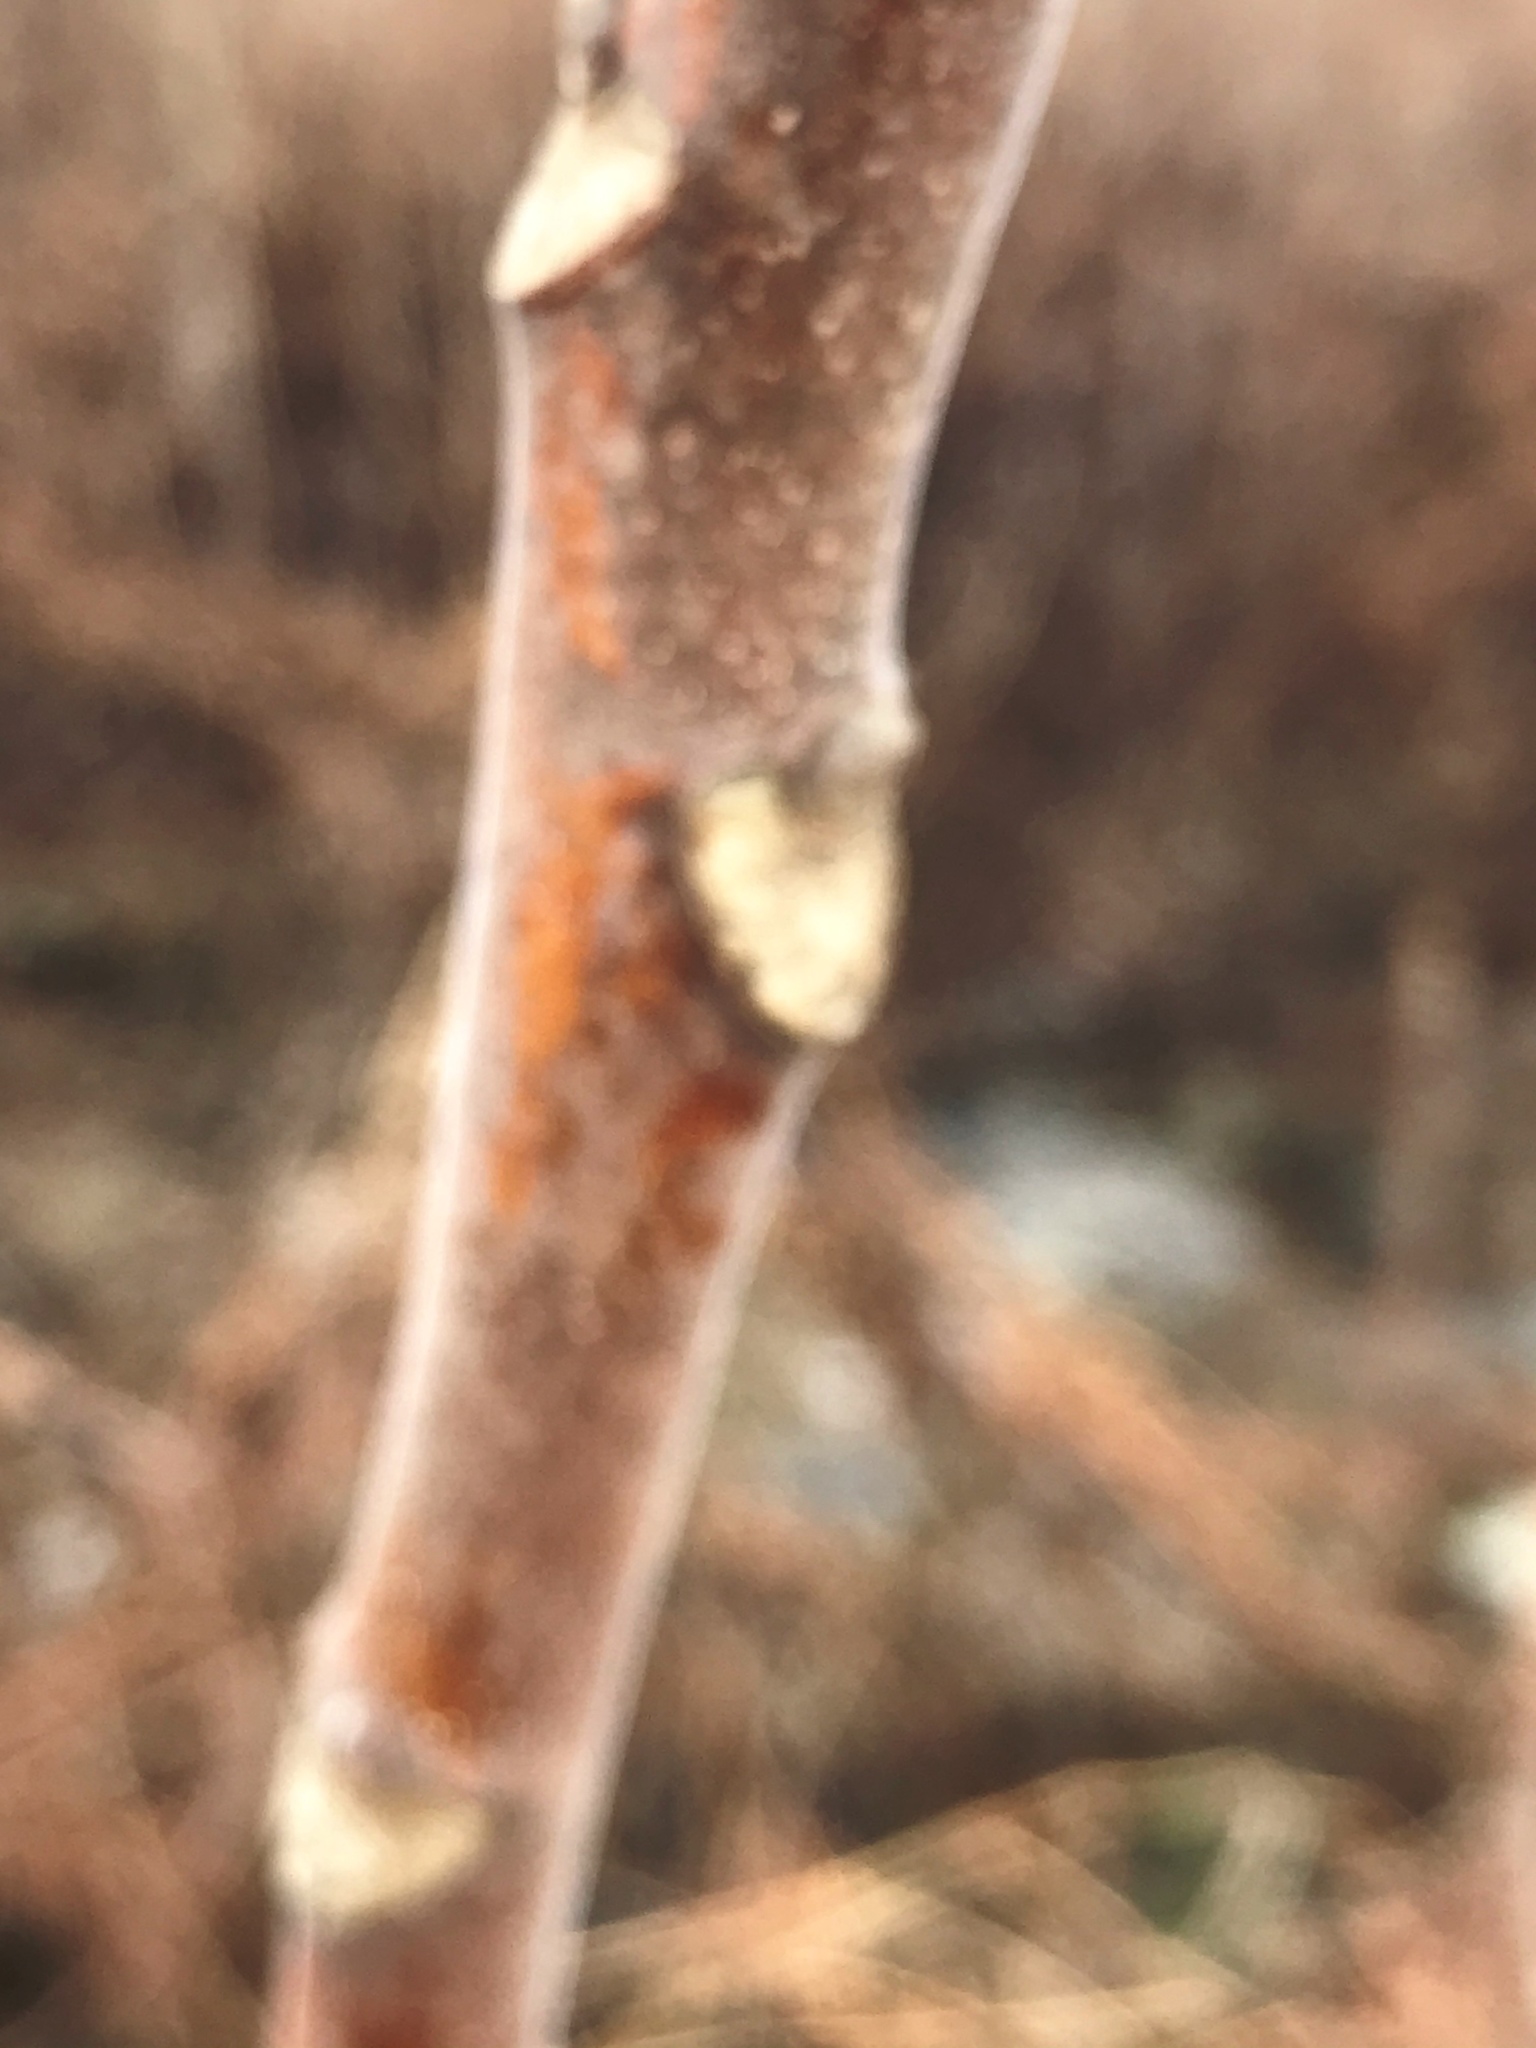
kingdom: Plantae
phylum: Tracheophyta
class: Magnoliopsida
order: Sapindales
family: Simaroubaceae
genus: Ailanthus
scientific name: Ailanthus altissima
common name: Tree-of-heaven
